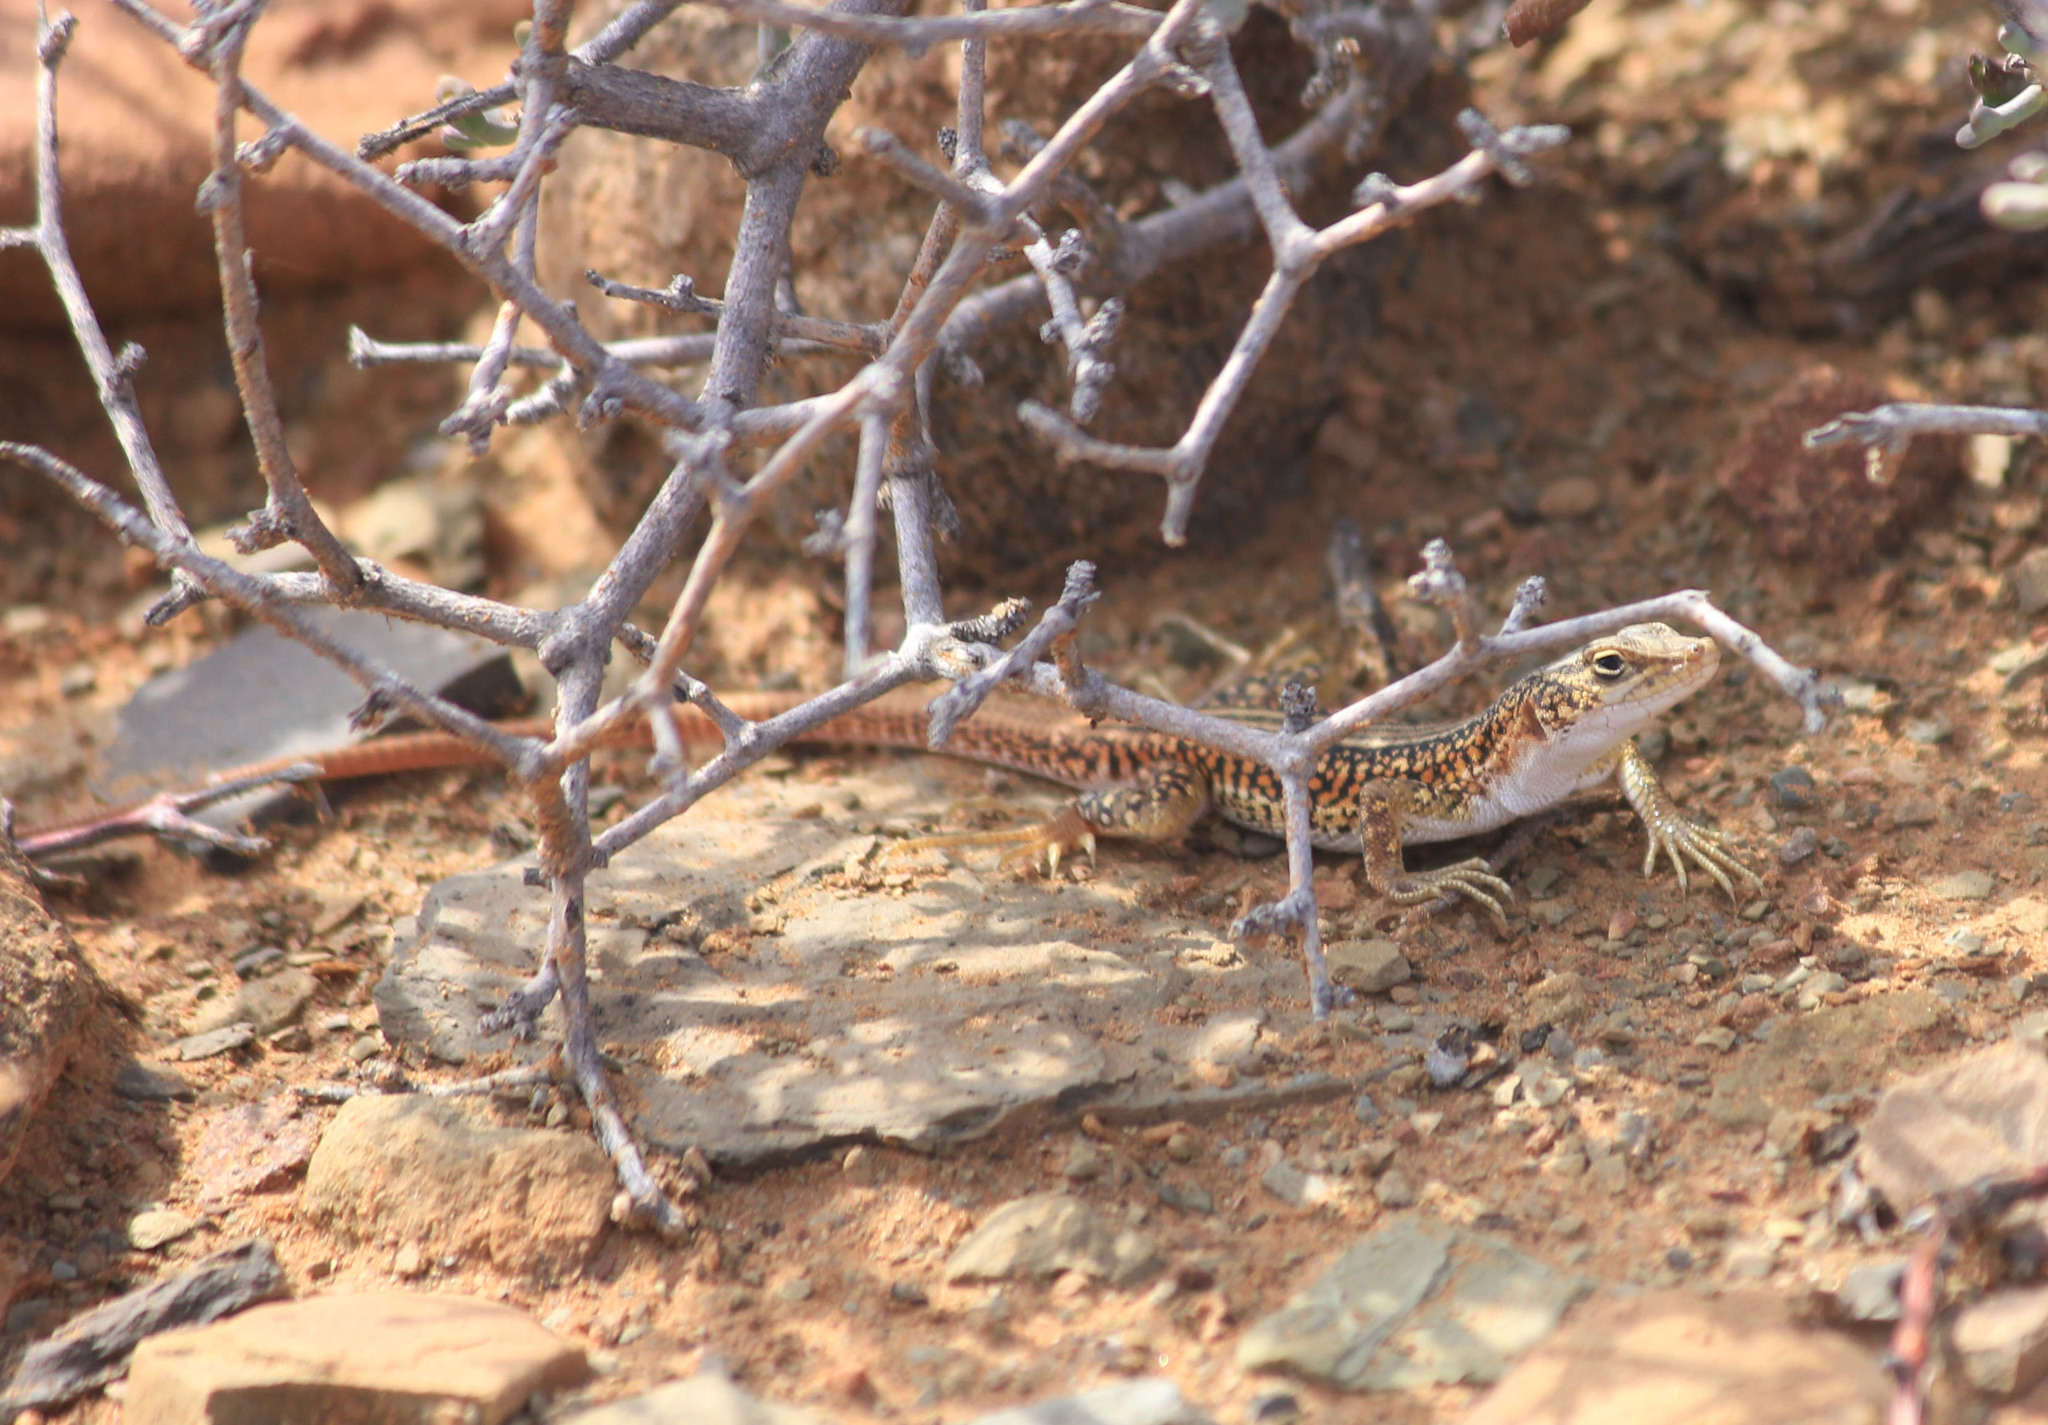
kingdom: Animalia
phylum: Chordata
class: Squamata
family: Lacertidae
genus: Pedioplanis
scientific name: Pedioplanis laticeps
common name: Karoo sand lizard
